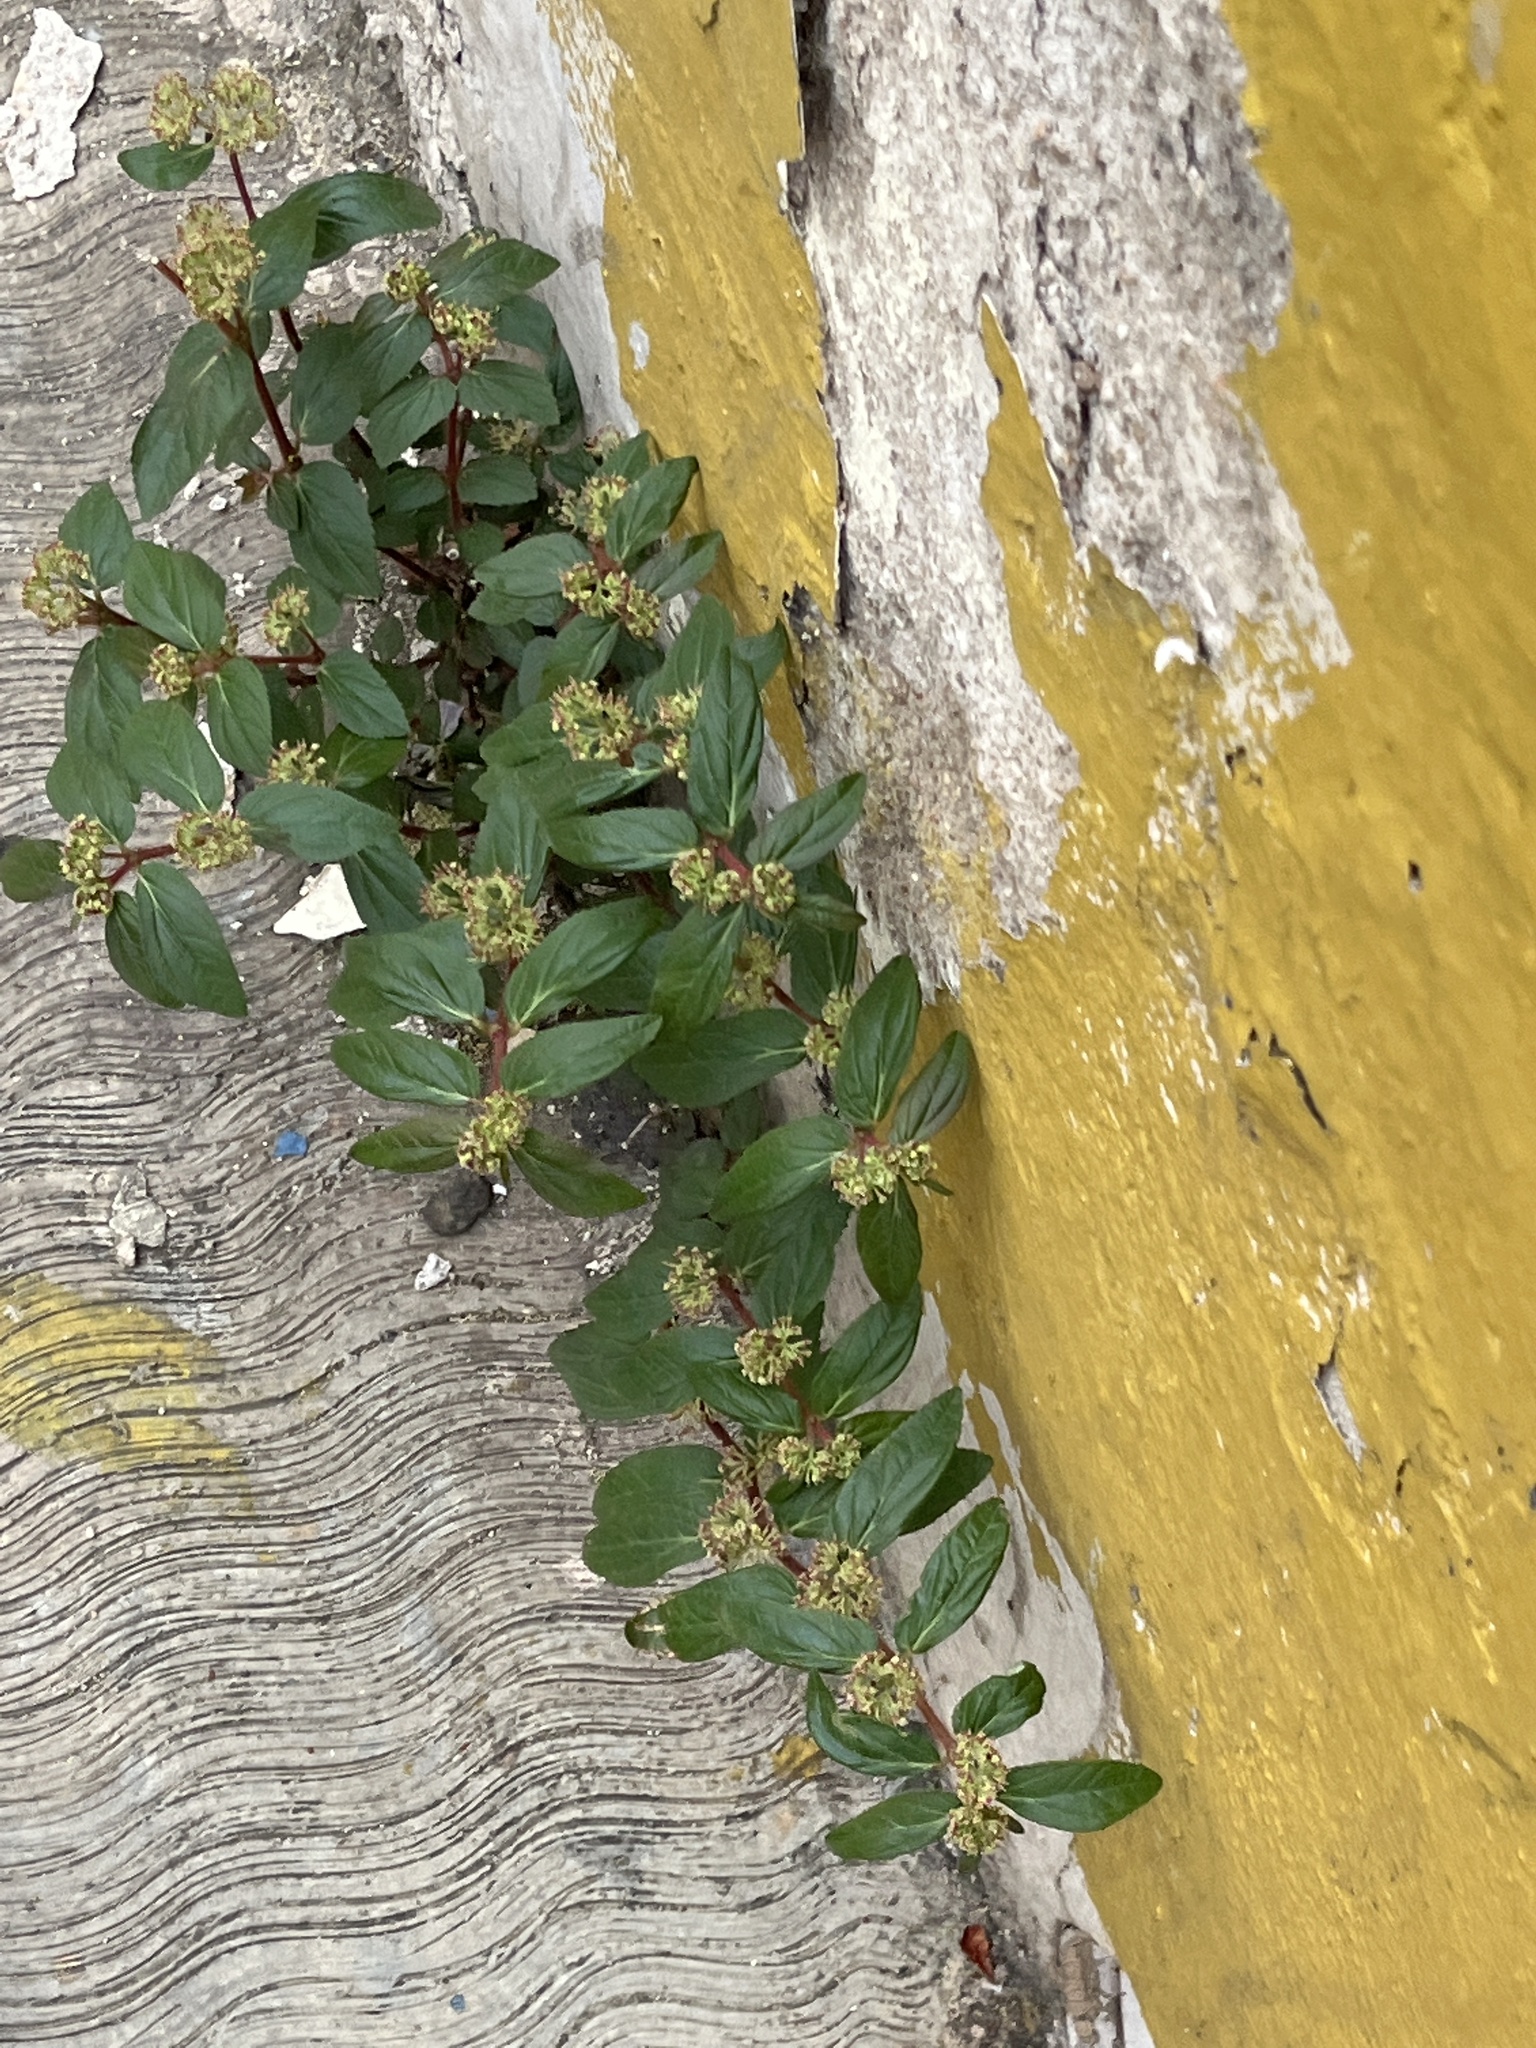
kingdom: Plantae
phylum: Tracheophyta
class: Magnoliopsida
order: Malpighiales
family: Euphorbiaceae
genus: Euphorbia
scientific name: Euphorbia hirta
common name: Pillpod sandmat
